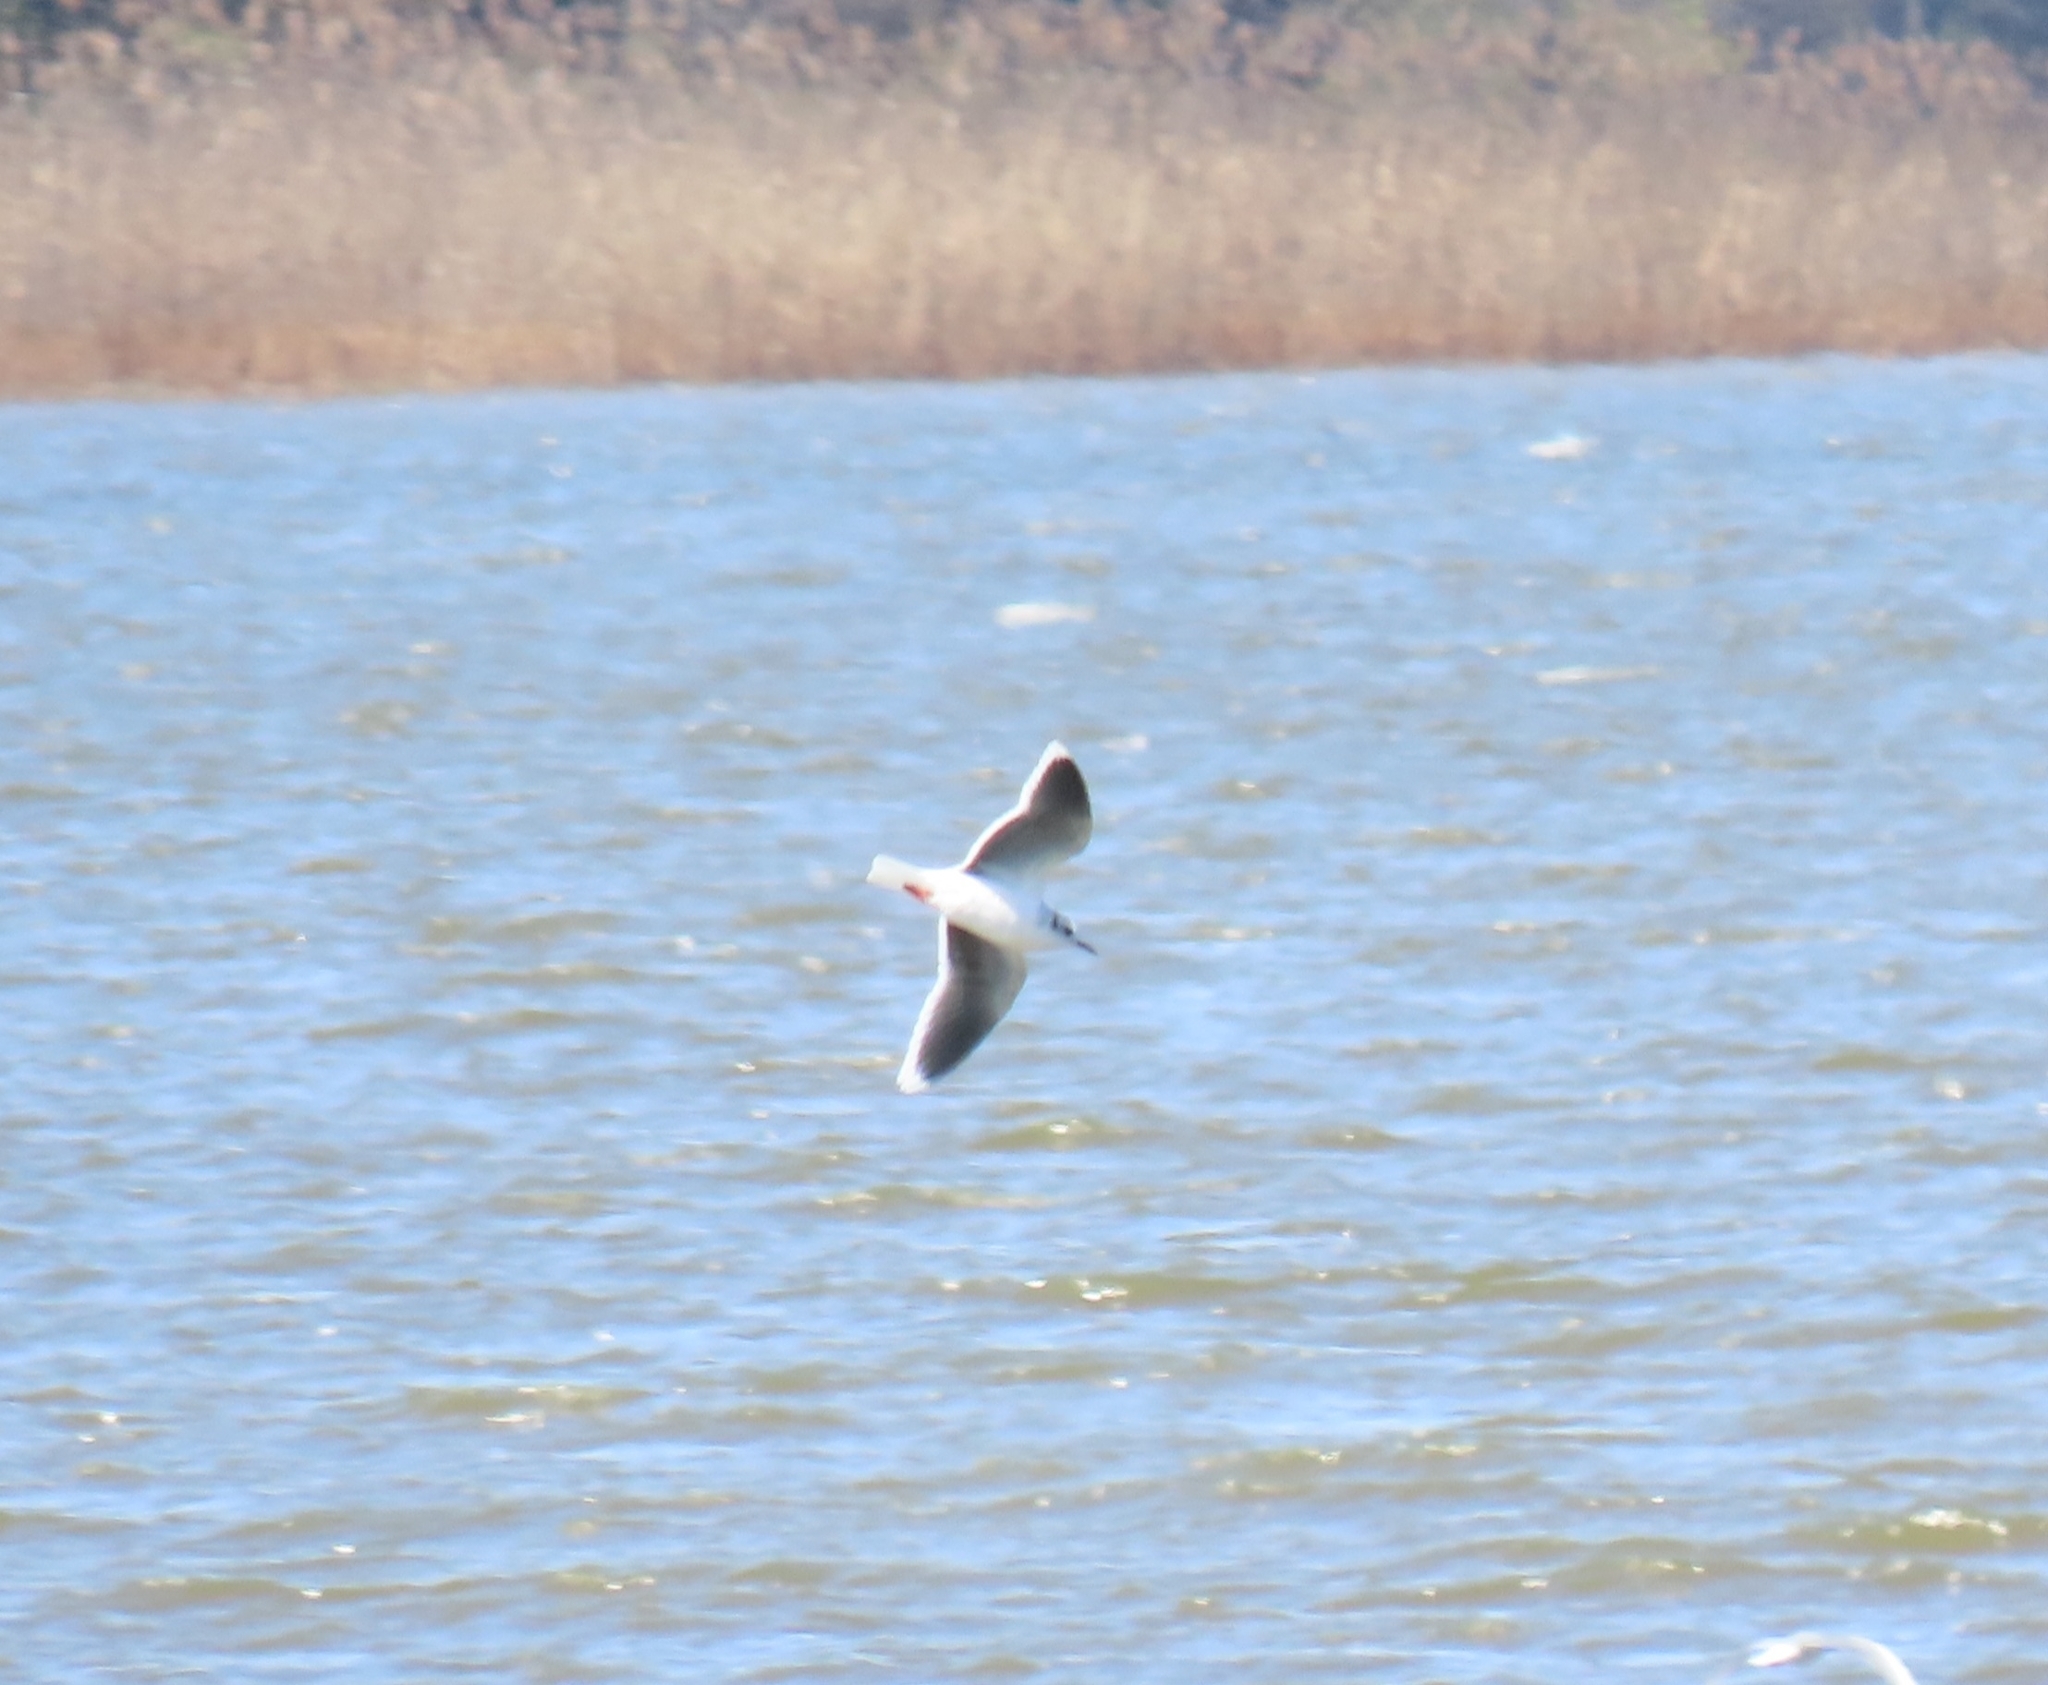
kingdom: Animalia
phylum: Chordata
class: Aves
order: Charadriiformes
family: Laridae
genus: Hydrocoloeus
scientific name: Hydrocoloeus minutus
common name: Little gull
